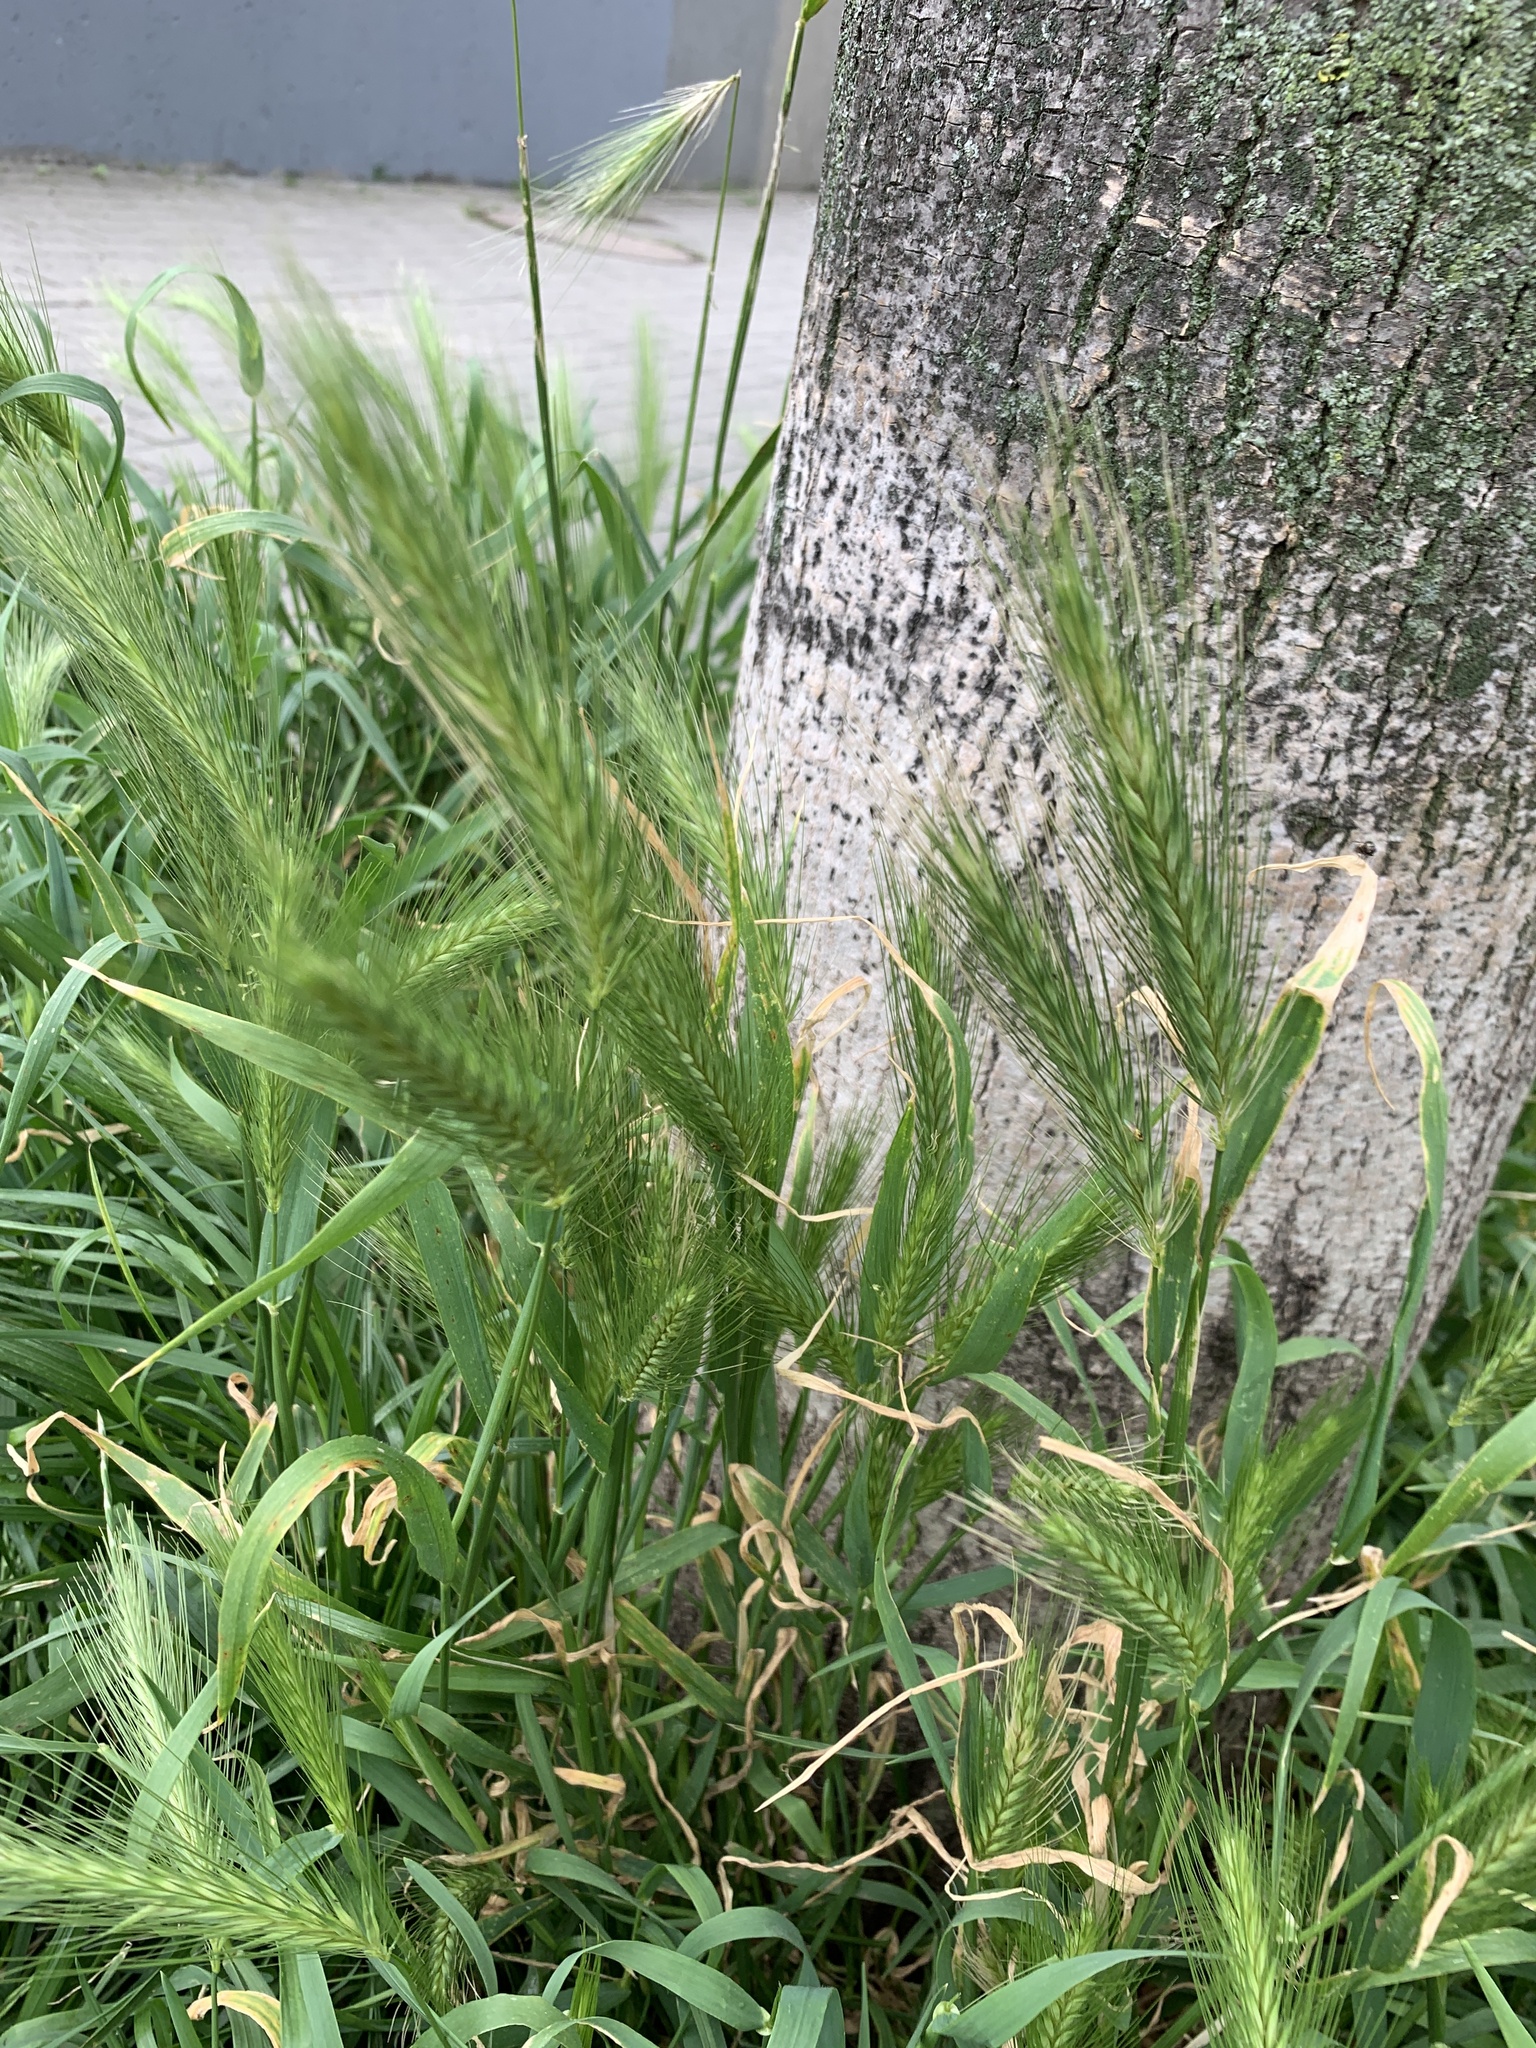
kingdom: Plantae
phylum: Tracheophyta
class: Liliopsida
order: Poales
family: Poaceae
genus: Hordeum
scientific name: Hordeum murinum
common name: Wall barley
